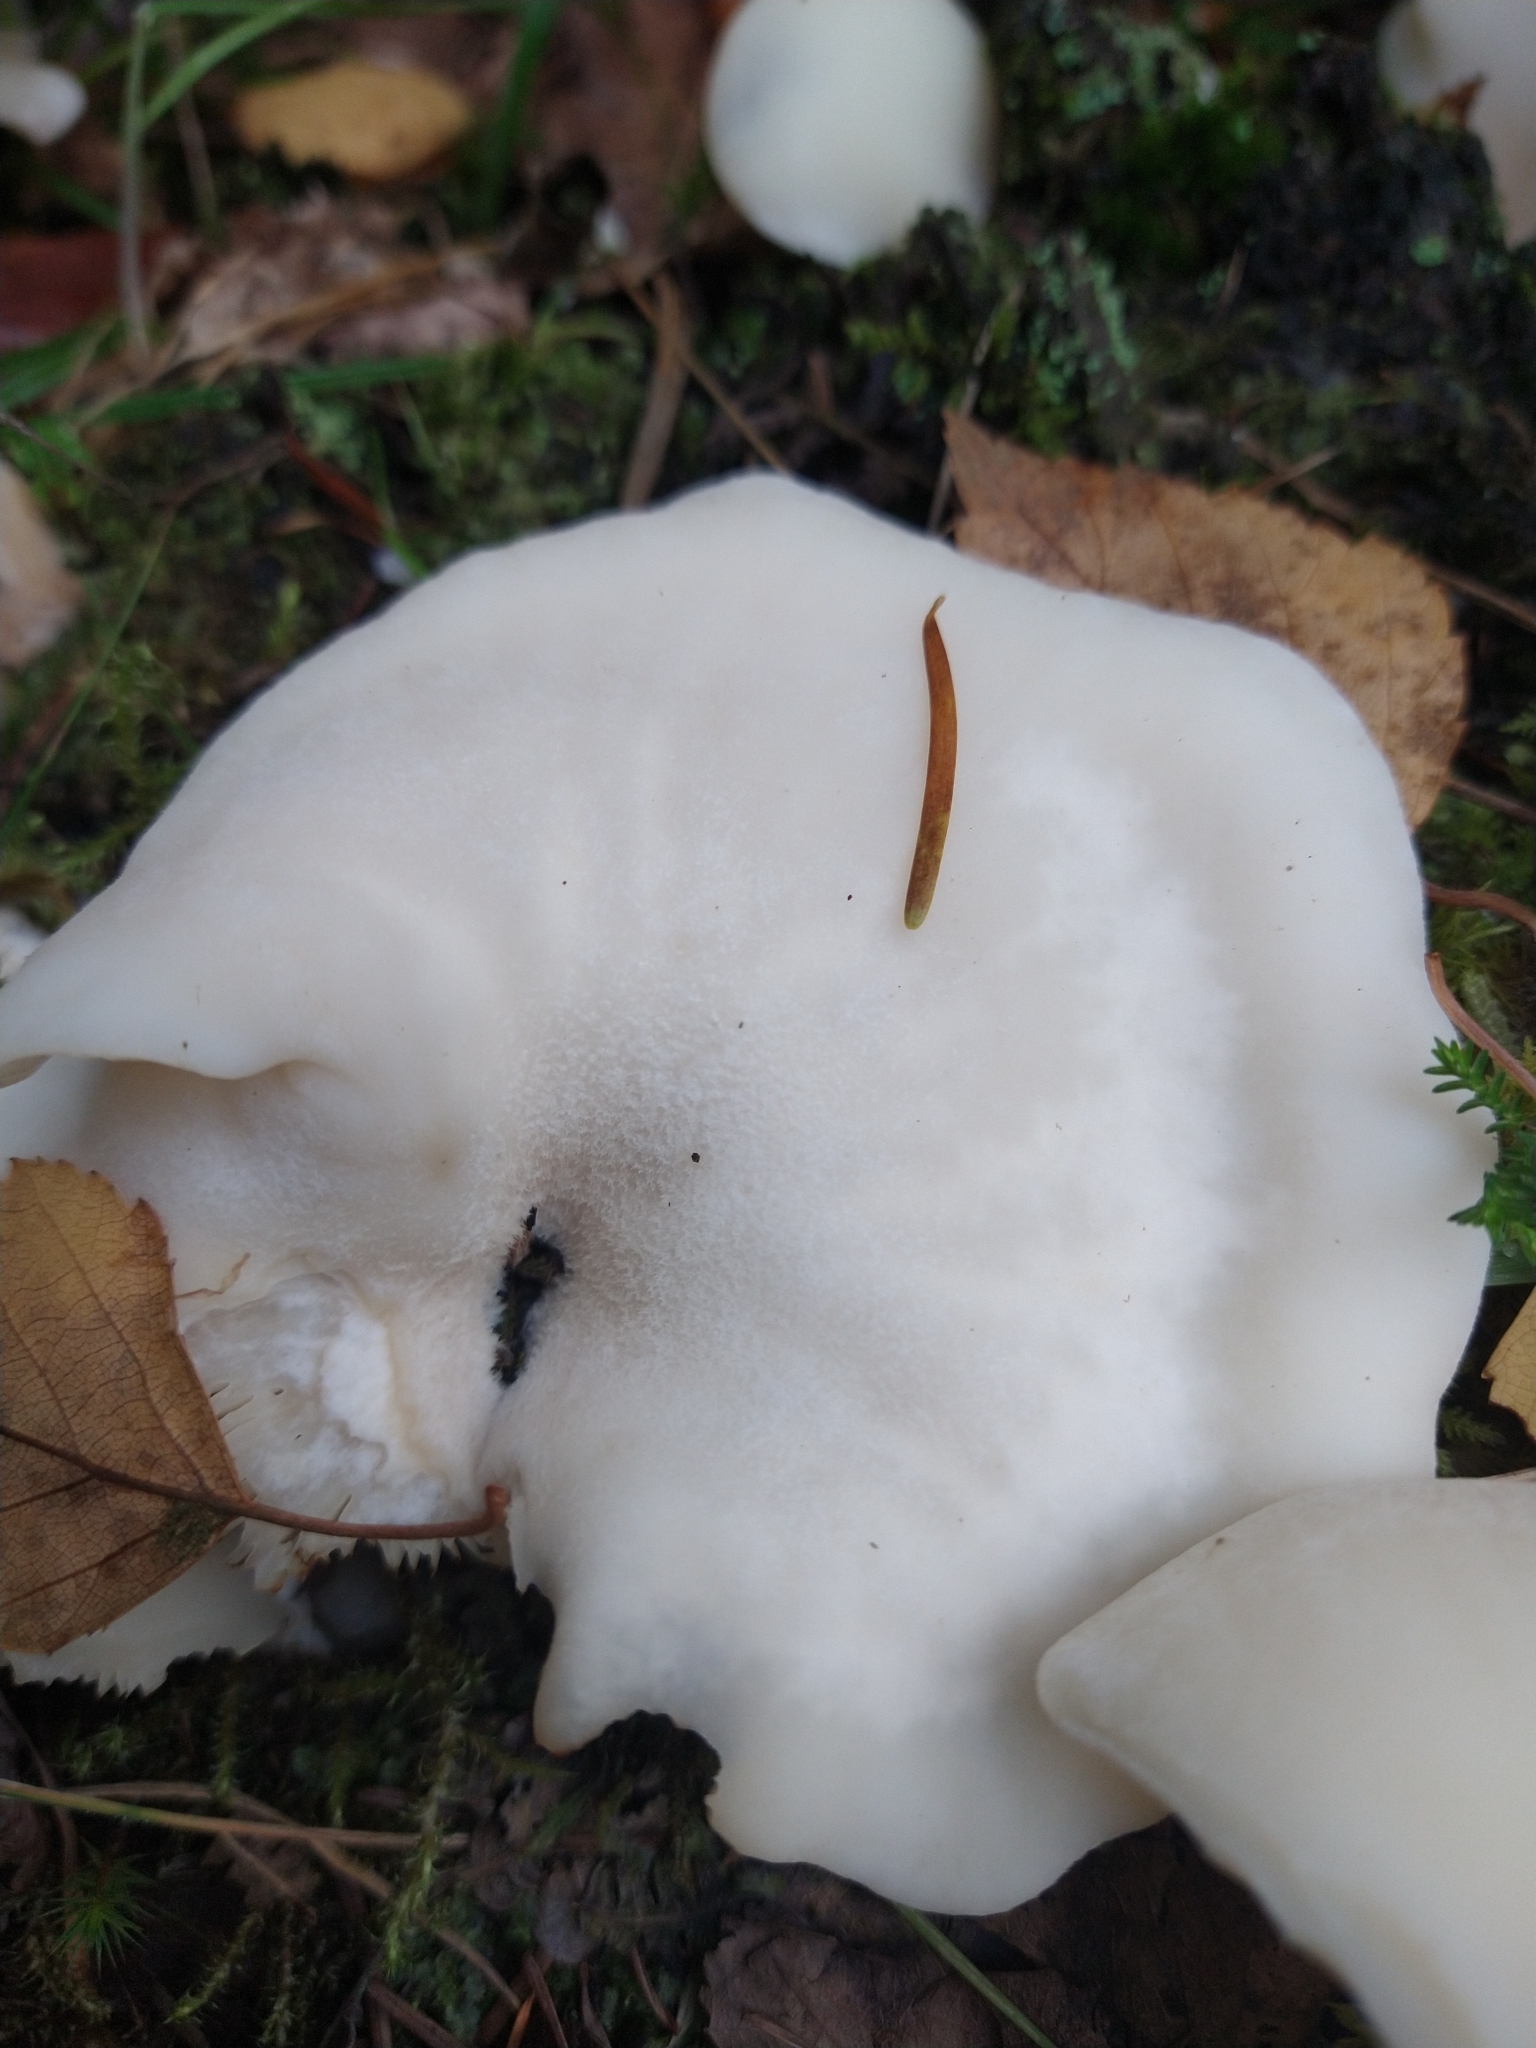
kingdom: Fungi
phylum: Basidiomycota
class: Agaricomycetes
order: Agaricales
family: Marasmiaceae
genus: Pleurocybella
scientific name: Pleurocybella porrigens
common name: Angel's wings
